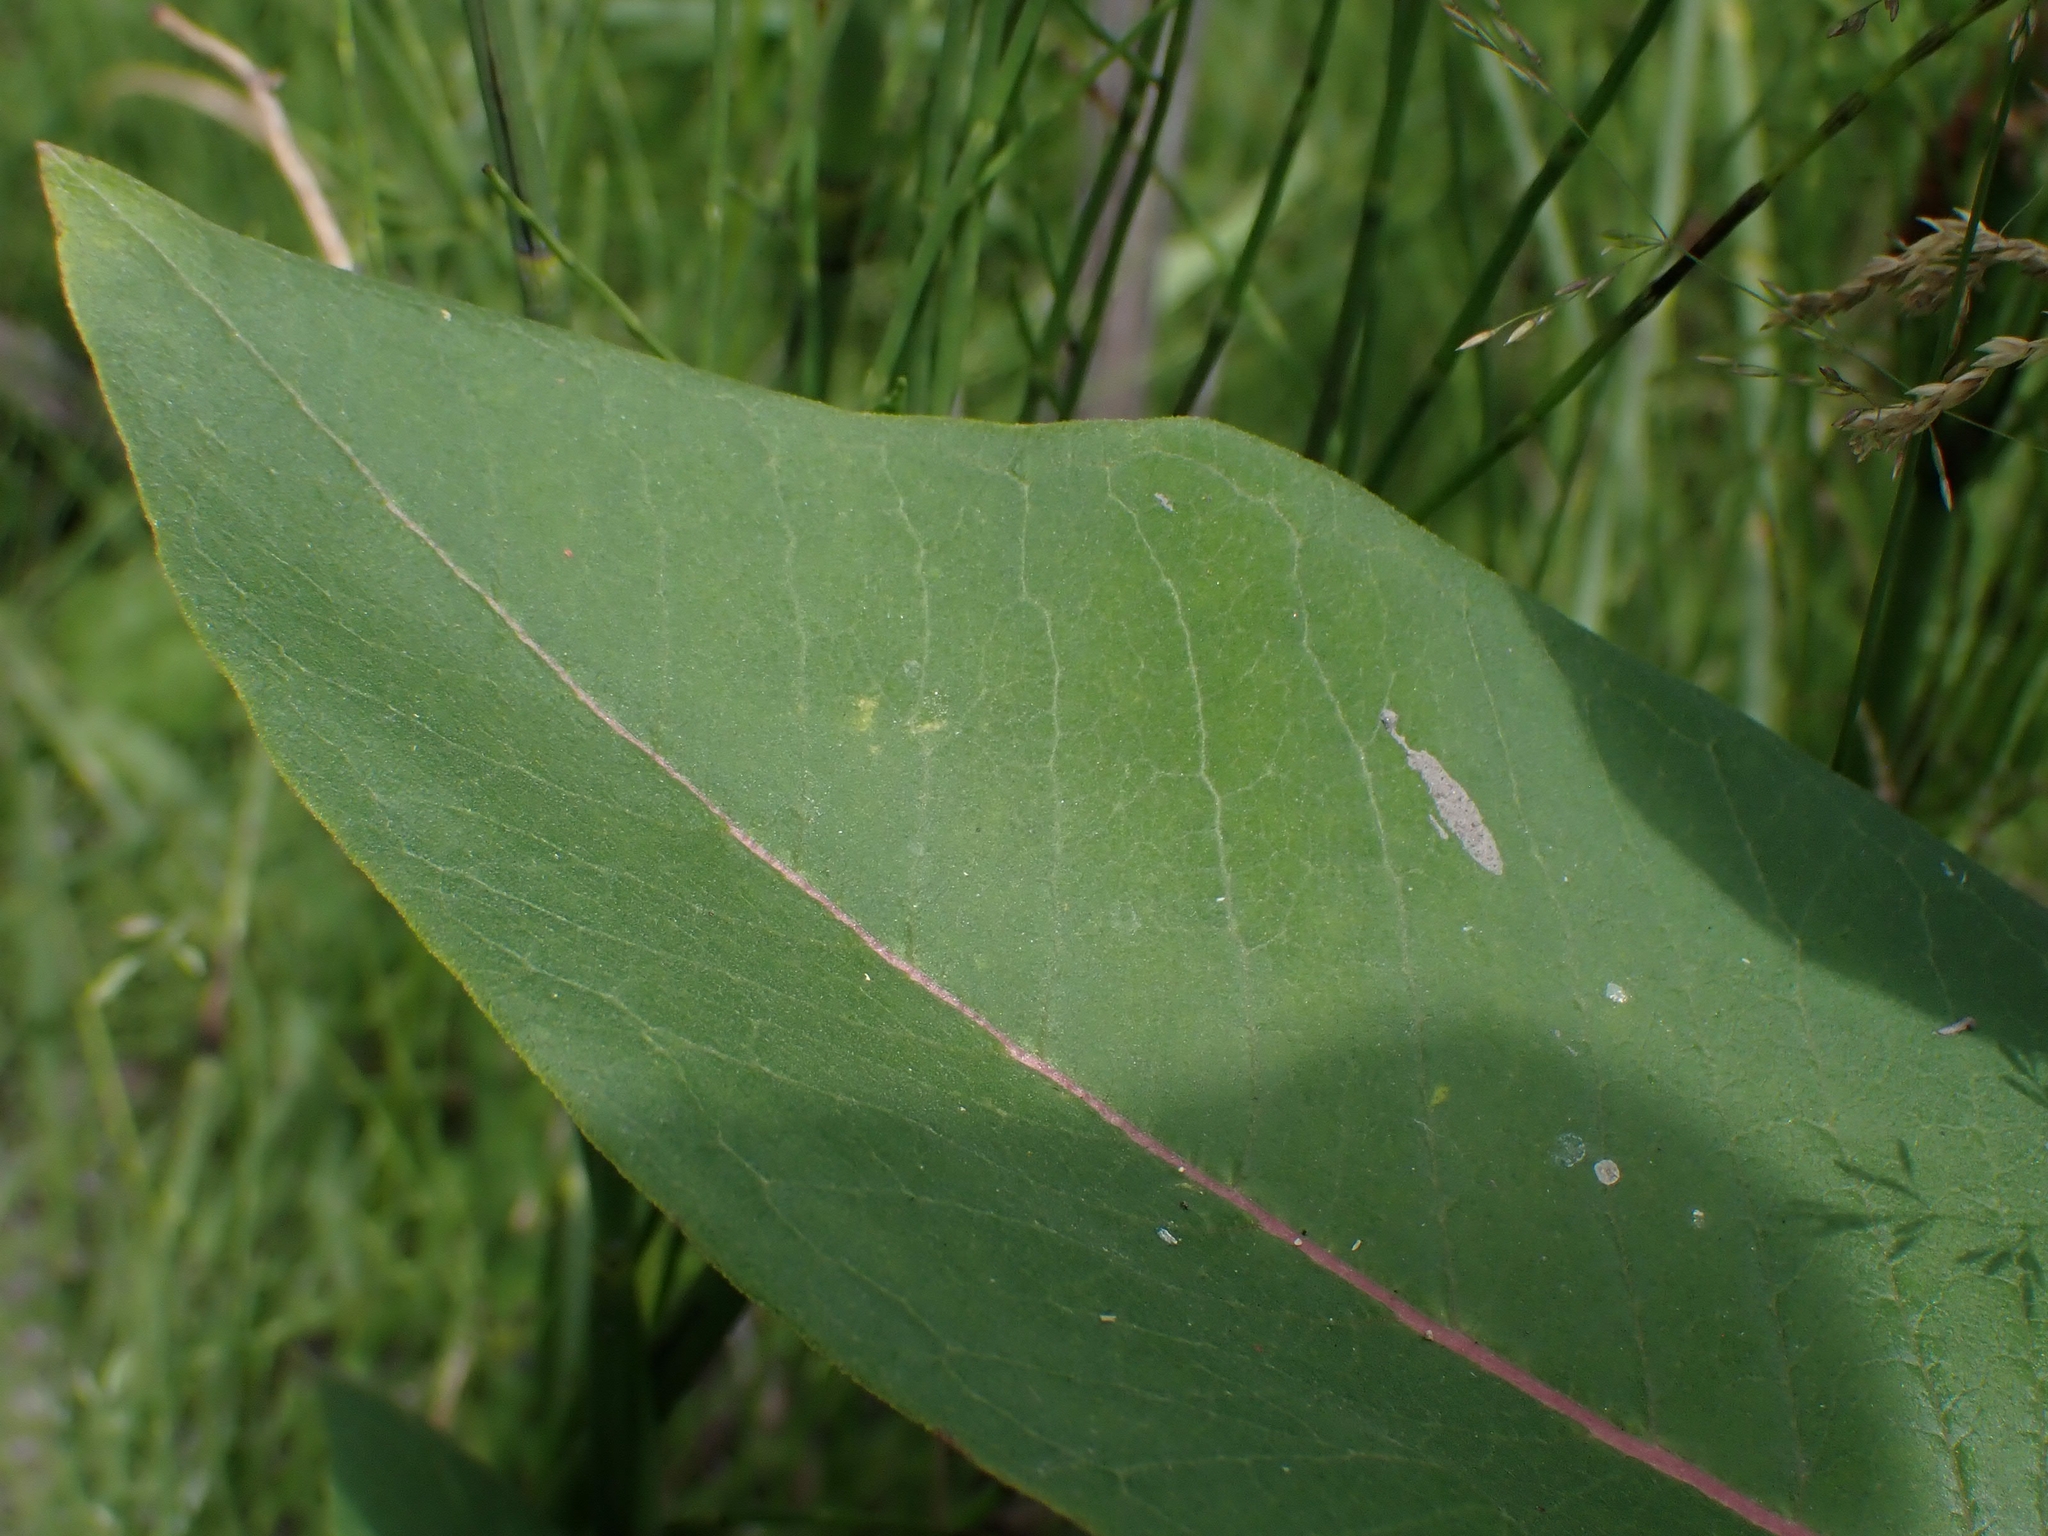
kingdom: Plantae
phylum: Tracheophyta
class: Magnoliopsida
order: Gentianales
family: Apocynaceae
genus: Asclepias
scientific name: Asclepias syriaca
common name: Common milkweed
